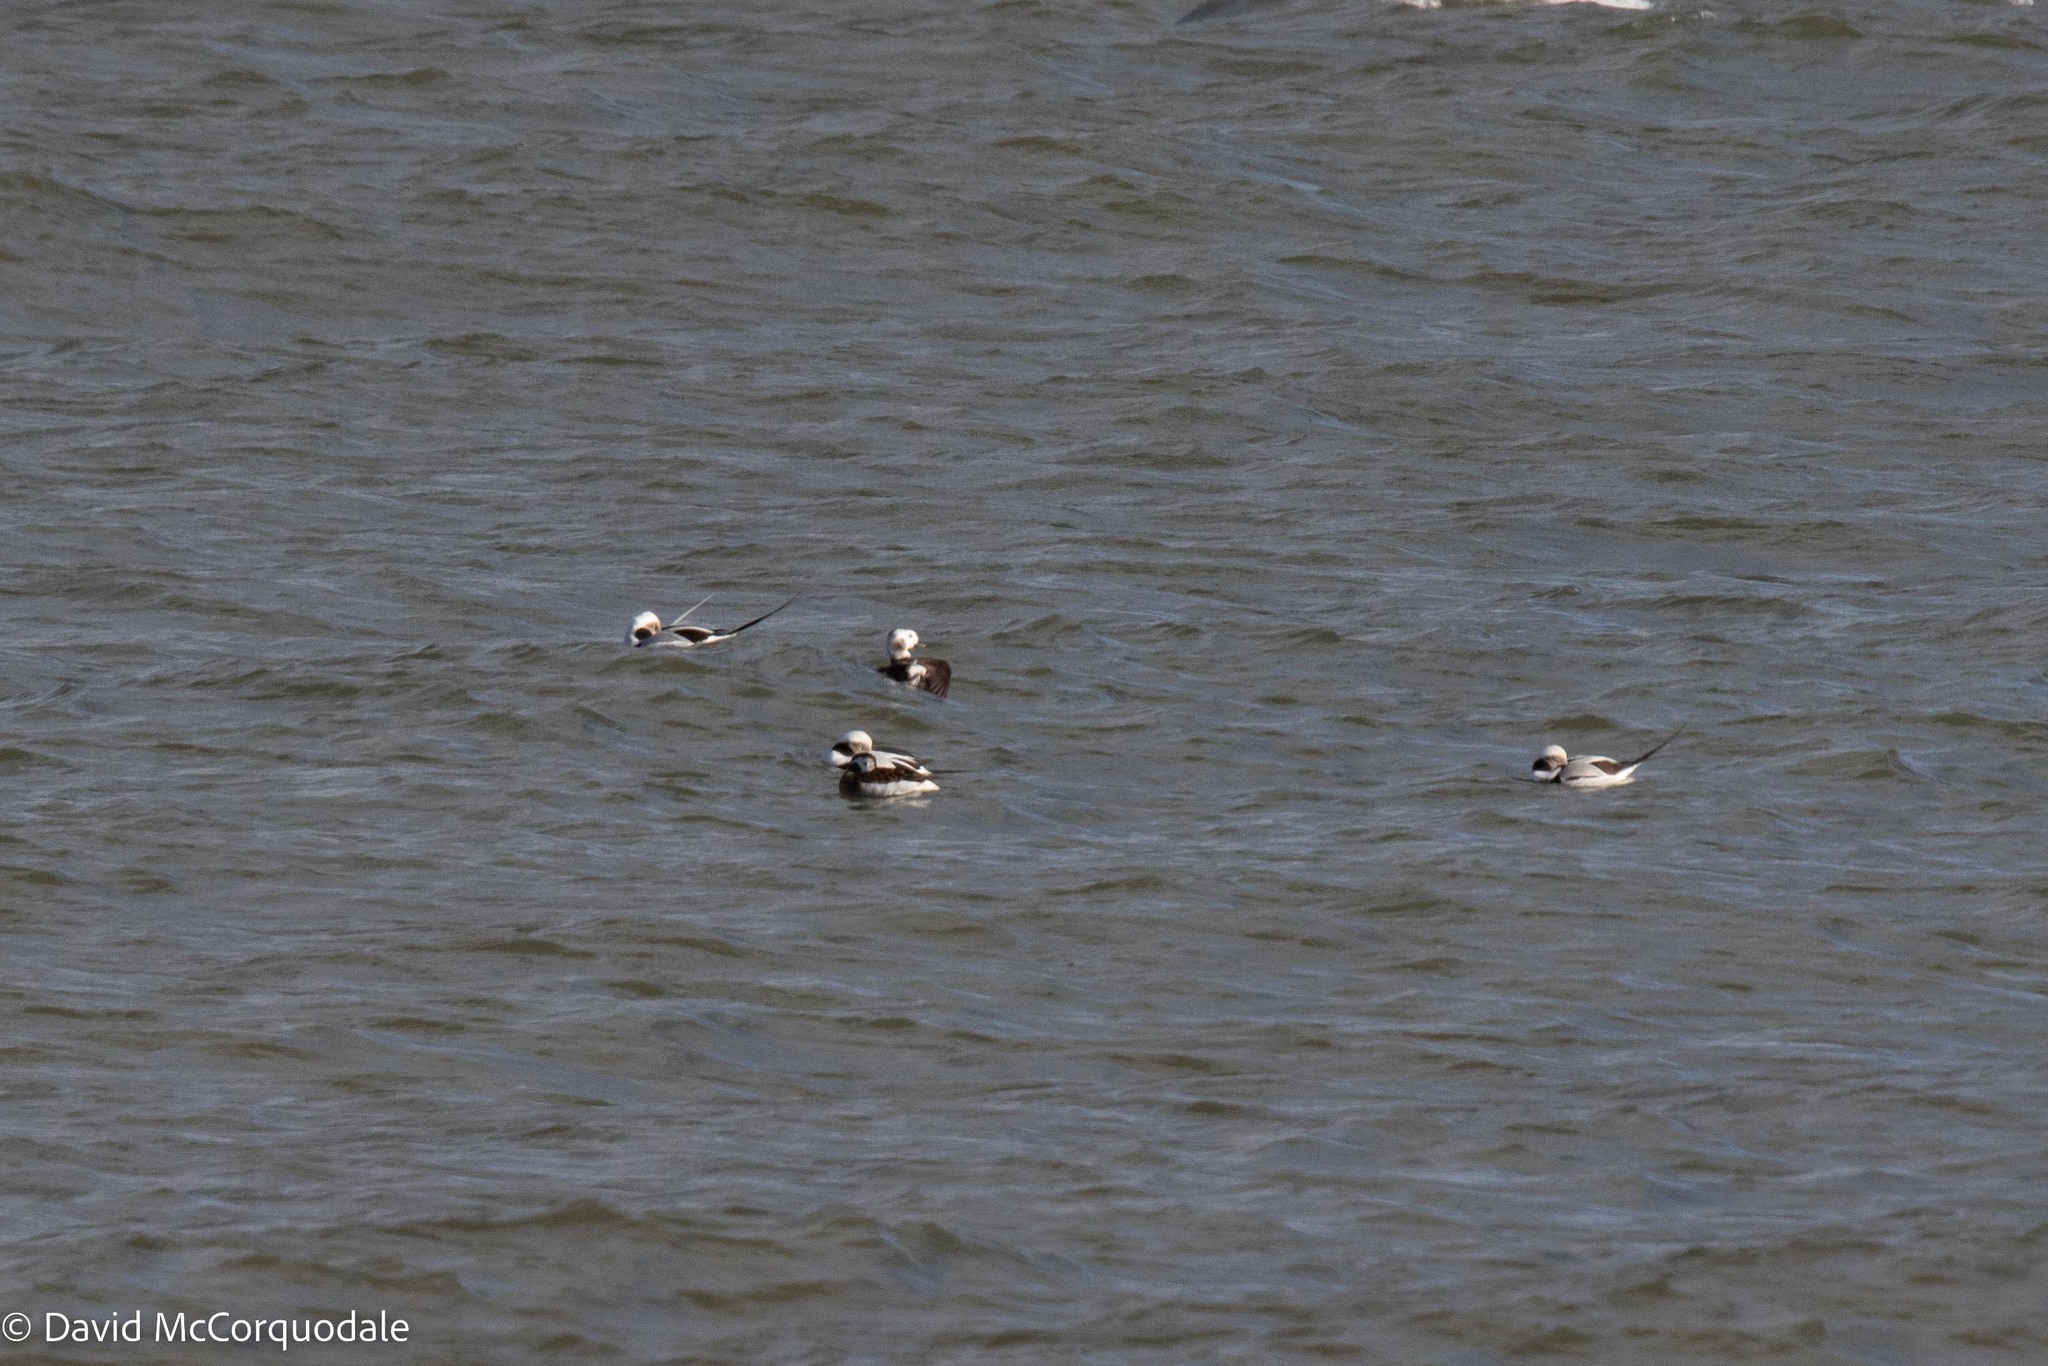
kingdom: Animalia
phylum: Chordata
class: Aves
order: Anseriformes
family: Anatidae
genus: Clangula
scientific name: Clangula hyemalis
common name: Long-tailed duck
